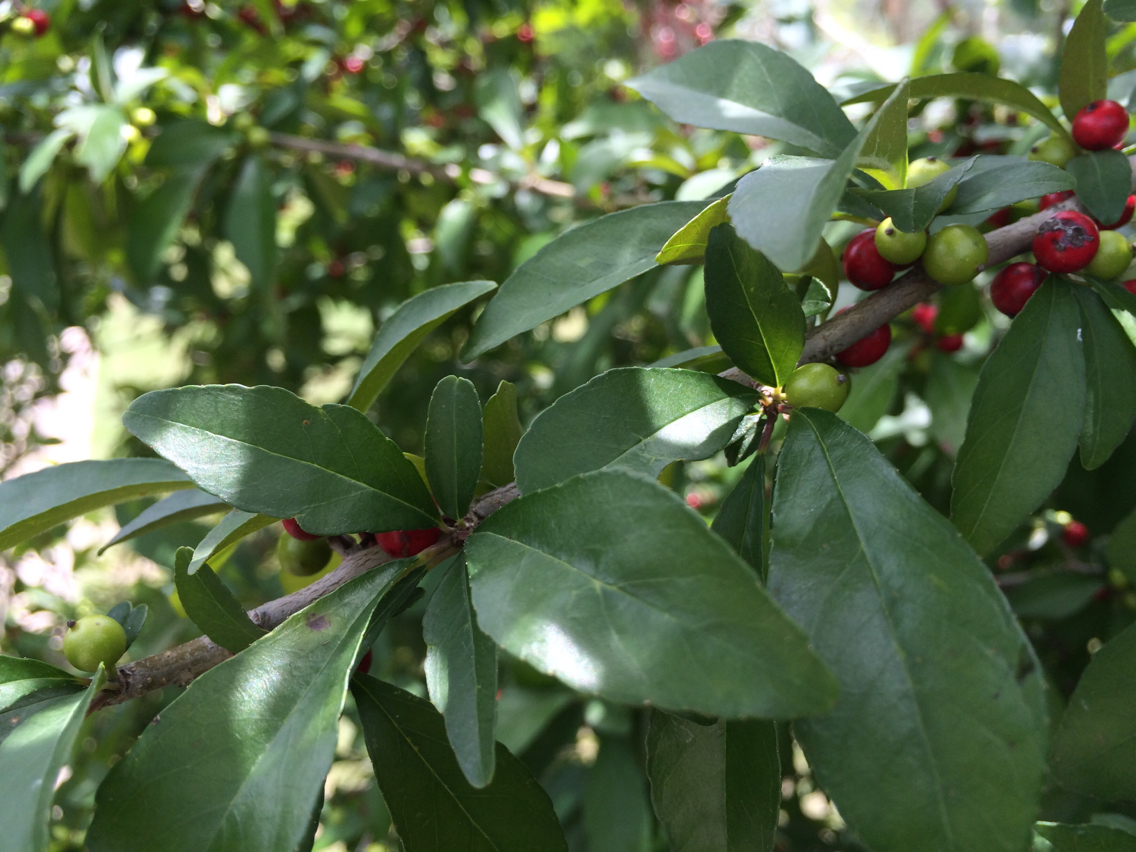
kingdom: Plantae
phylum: Tracheophyta
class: Magnoliopsida
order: Aquifoliales
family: Aquifoliaceae
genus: Ilex
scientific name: Ilex decidua
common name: Possum-haw
